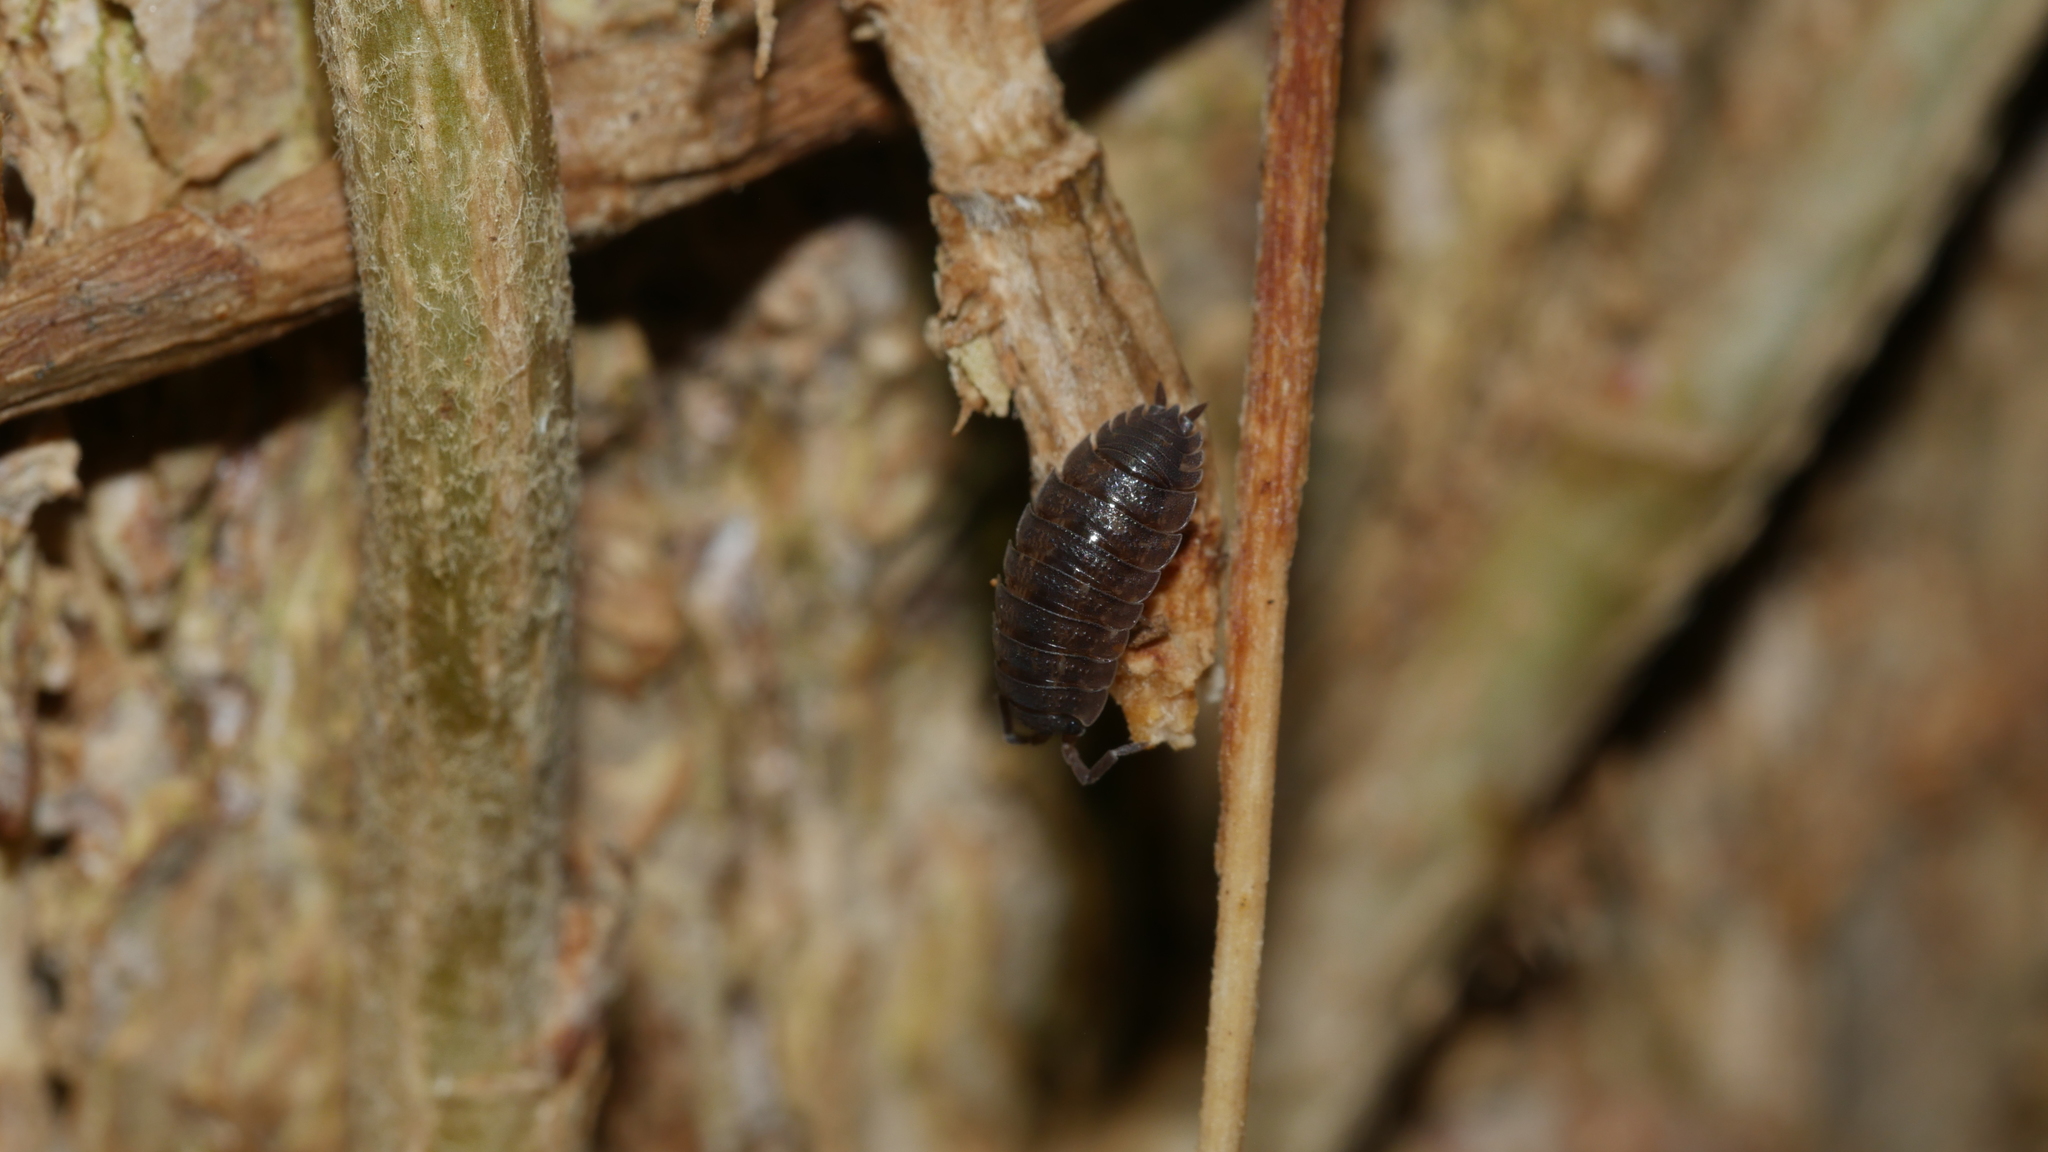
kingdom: Animalia
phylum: Arthropoda
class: Malacostraca
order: Isopoda
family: Porcellionidae
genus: Porcellio
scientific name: Porcellio scaber
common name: Common rough woodlouse
